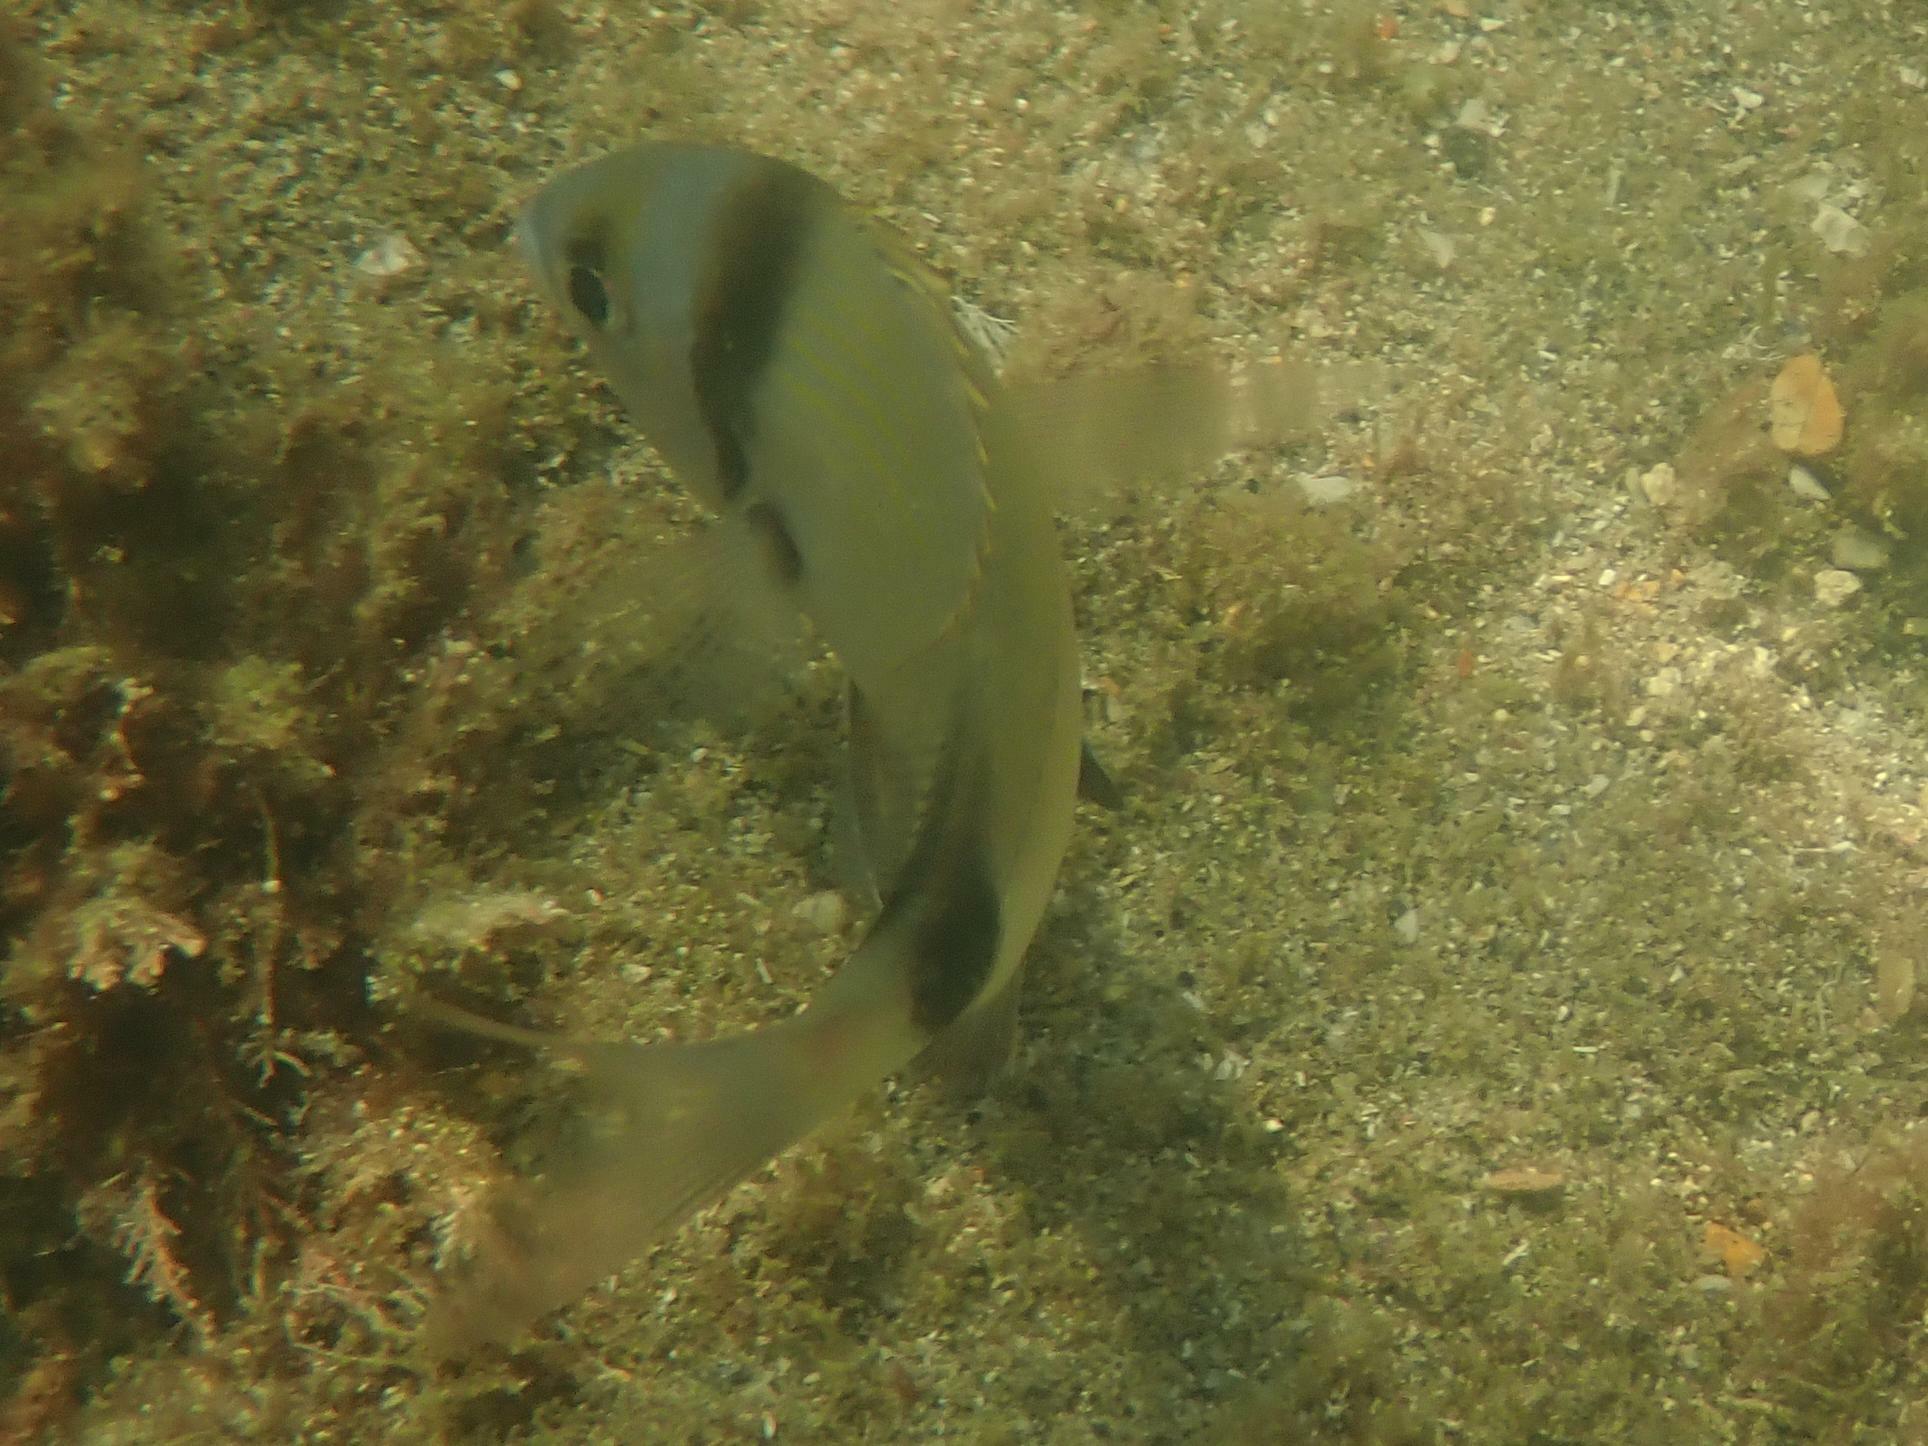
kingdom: Animalia
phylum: Chordata
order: Perciformes
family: Sparidae
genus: Diplodus
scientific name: Diplodus vulgaris
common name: Common two-banded seabream
